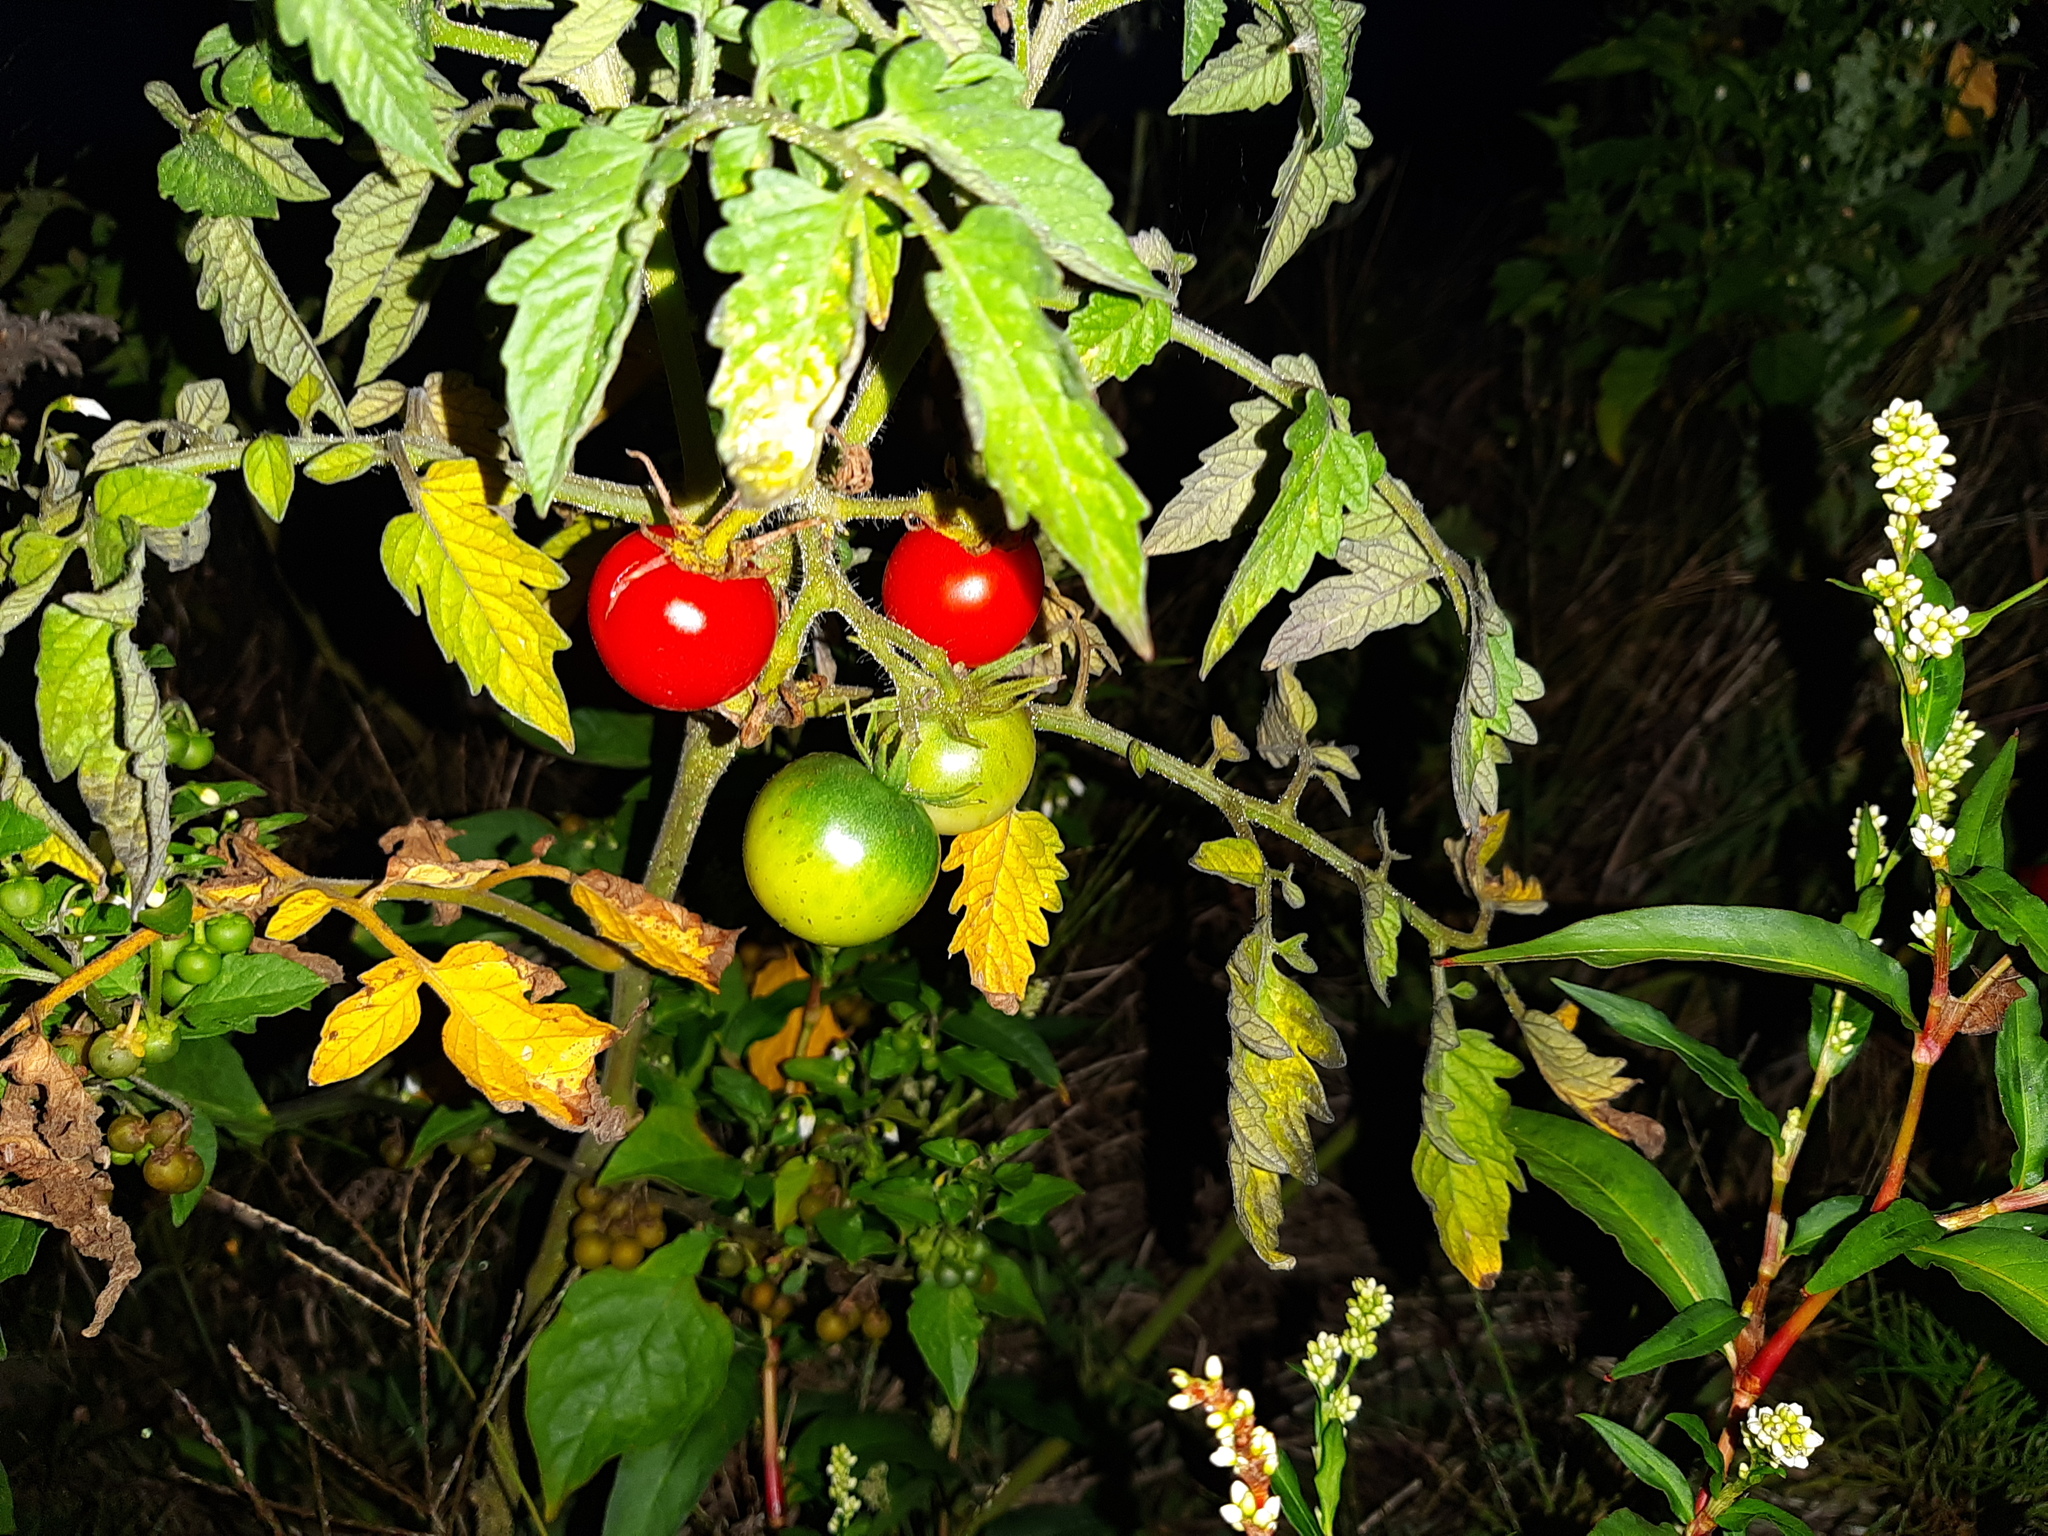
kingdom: Plantae
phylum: Tracheophyta
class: Magnoliopsida
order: Solanales
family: Solanaceae
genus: Solanum
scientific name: Solanum lycopersicum
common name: Garden tomato
